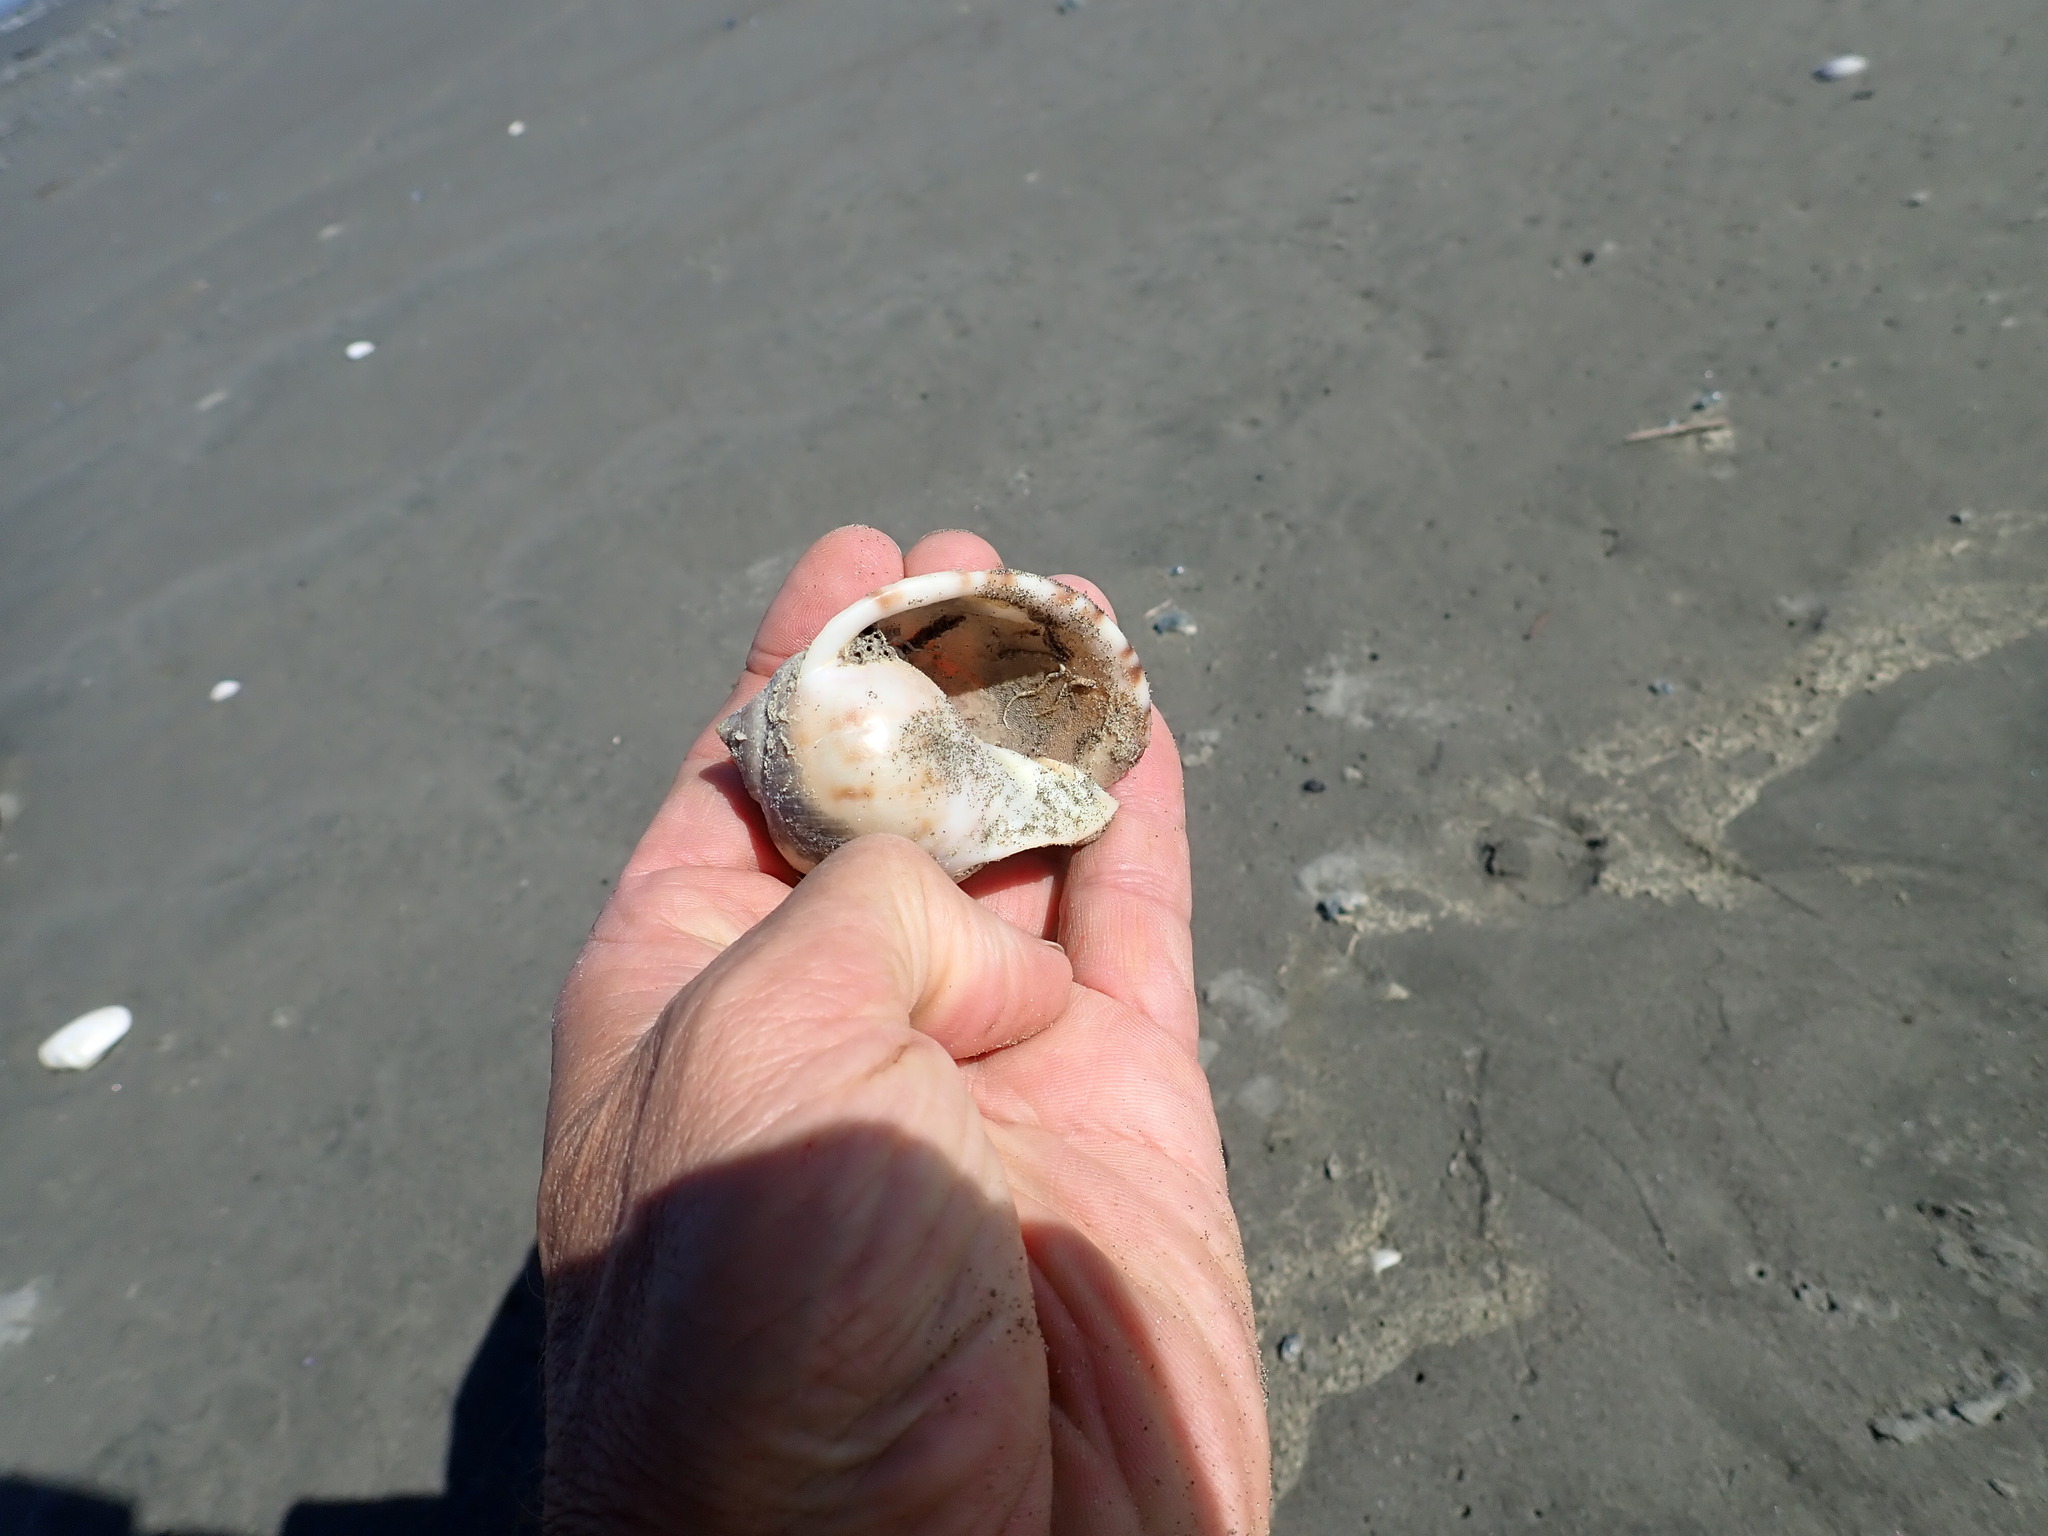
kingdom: Animalia
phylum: Mollusca
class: Gastropoda
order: Littorinimorpha
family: Cassidae
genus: Semicassis
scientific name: Semicassis pyrum
